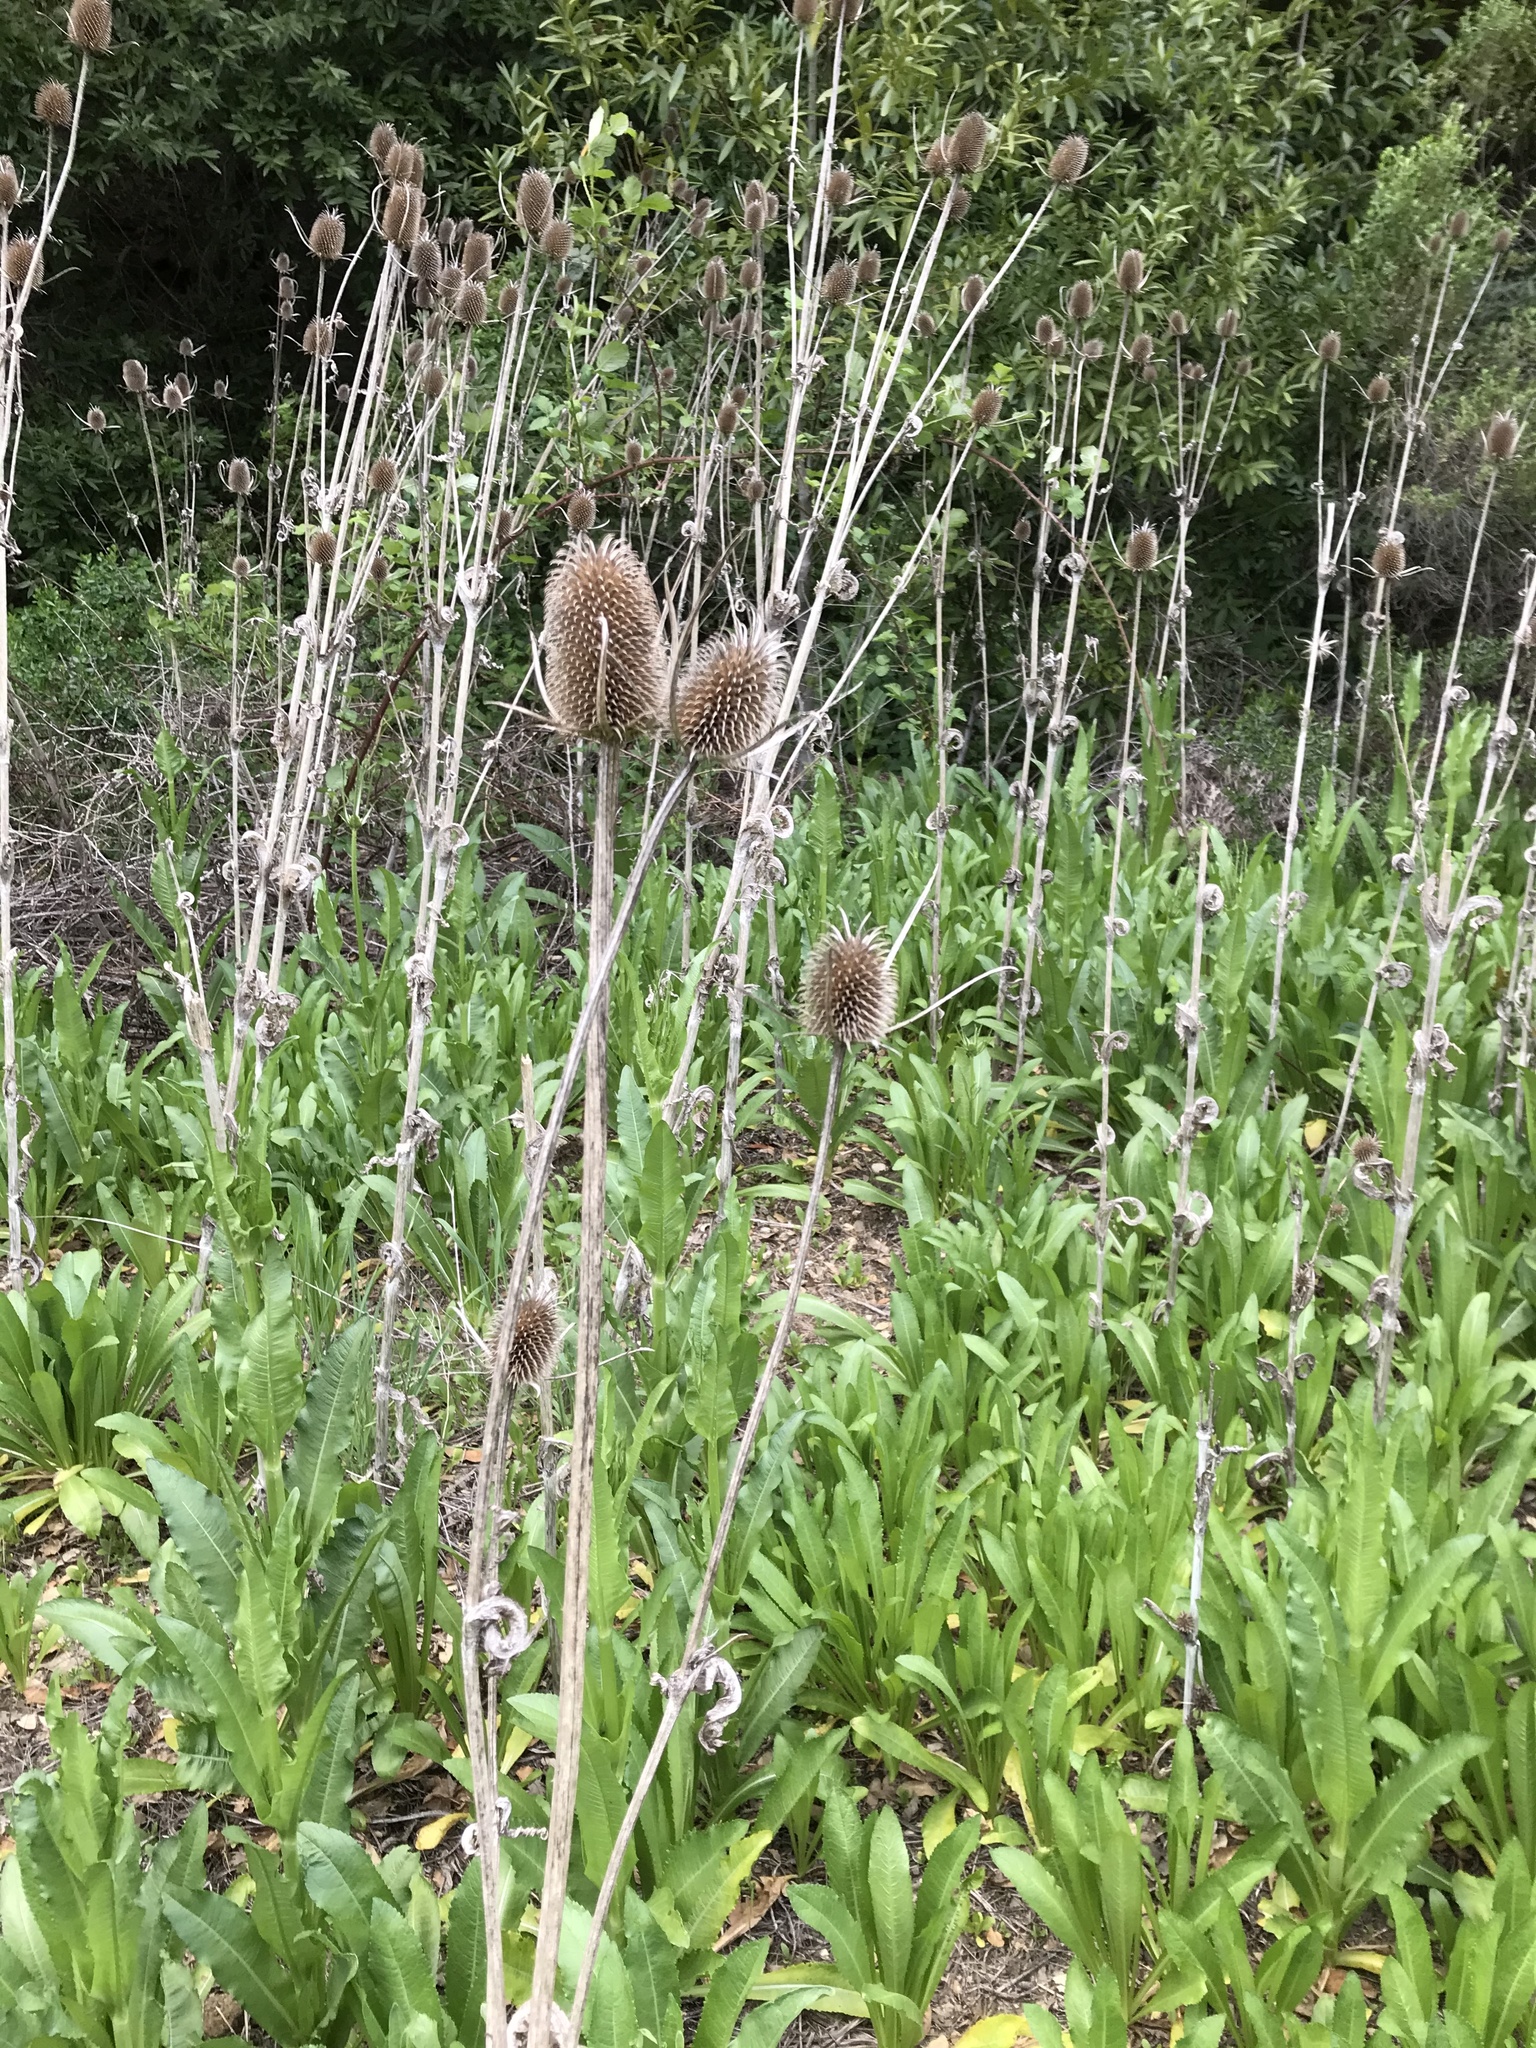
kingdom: Plantae
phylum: Tracheophyta
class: Magnoliopsida
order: Dipsacales
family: Caprifoliaceae
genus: Dipsacus
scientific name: Dipsacus sativus
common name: Fuller's teasel
